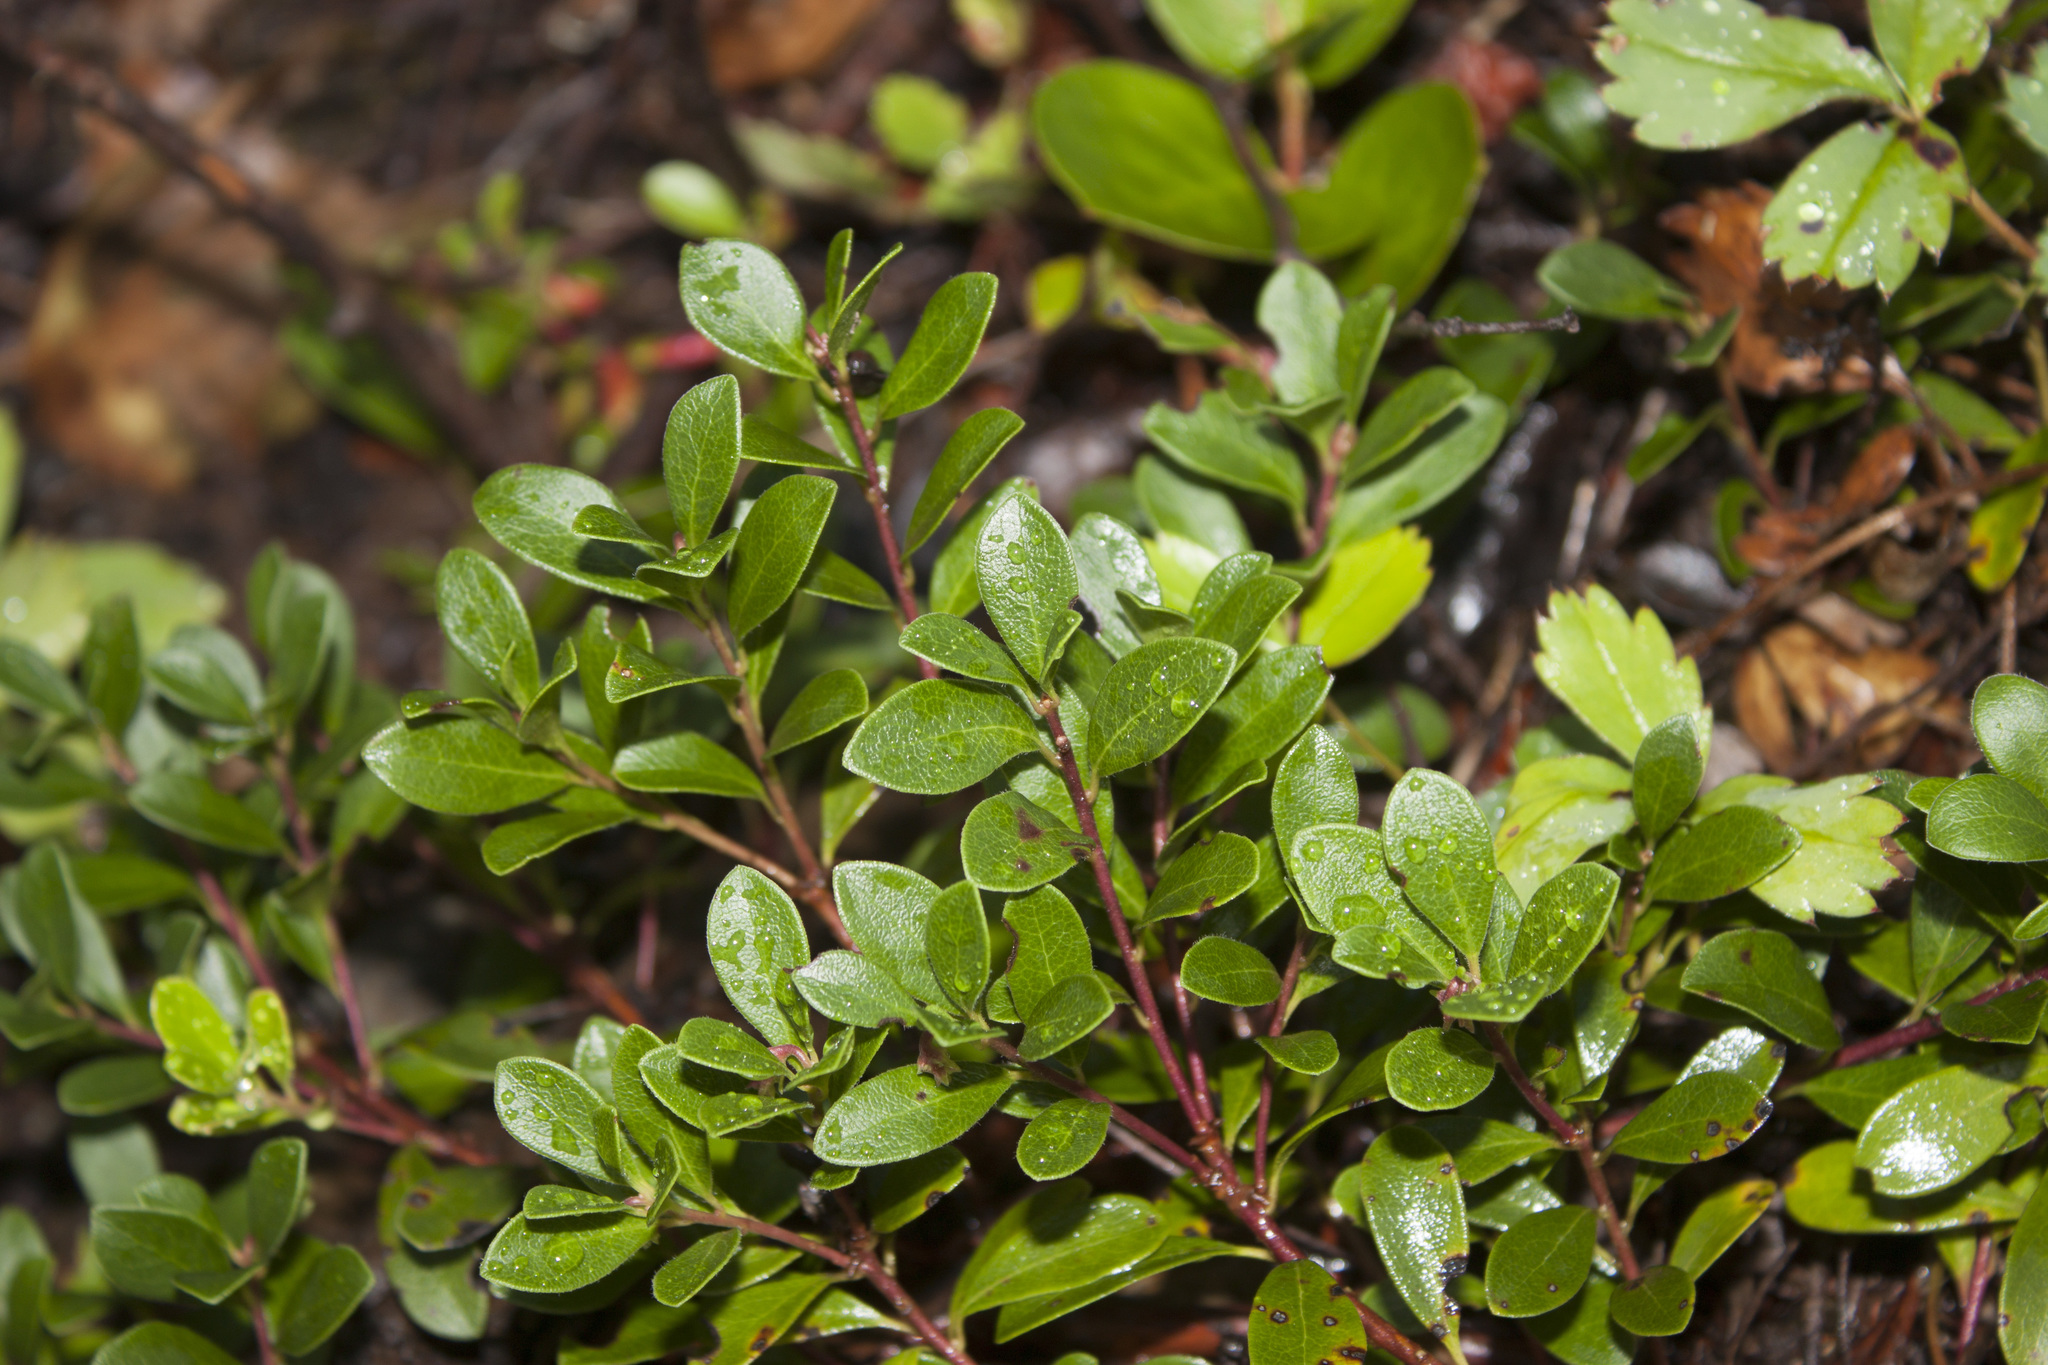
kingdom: Plantae
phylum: Tracheophyta
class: Magnoliopsida
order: Ericales
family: Ericaceae
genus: Arctostaphylos
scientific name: Arctostaphylos uva-ursi
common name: Bearberry
